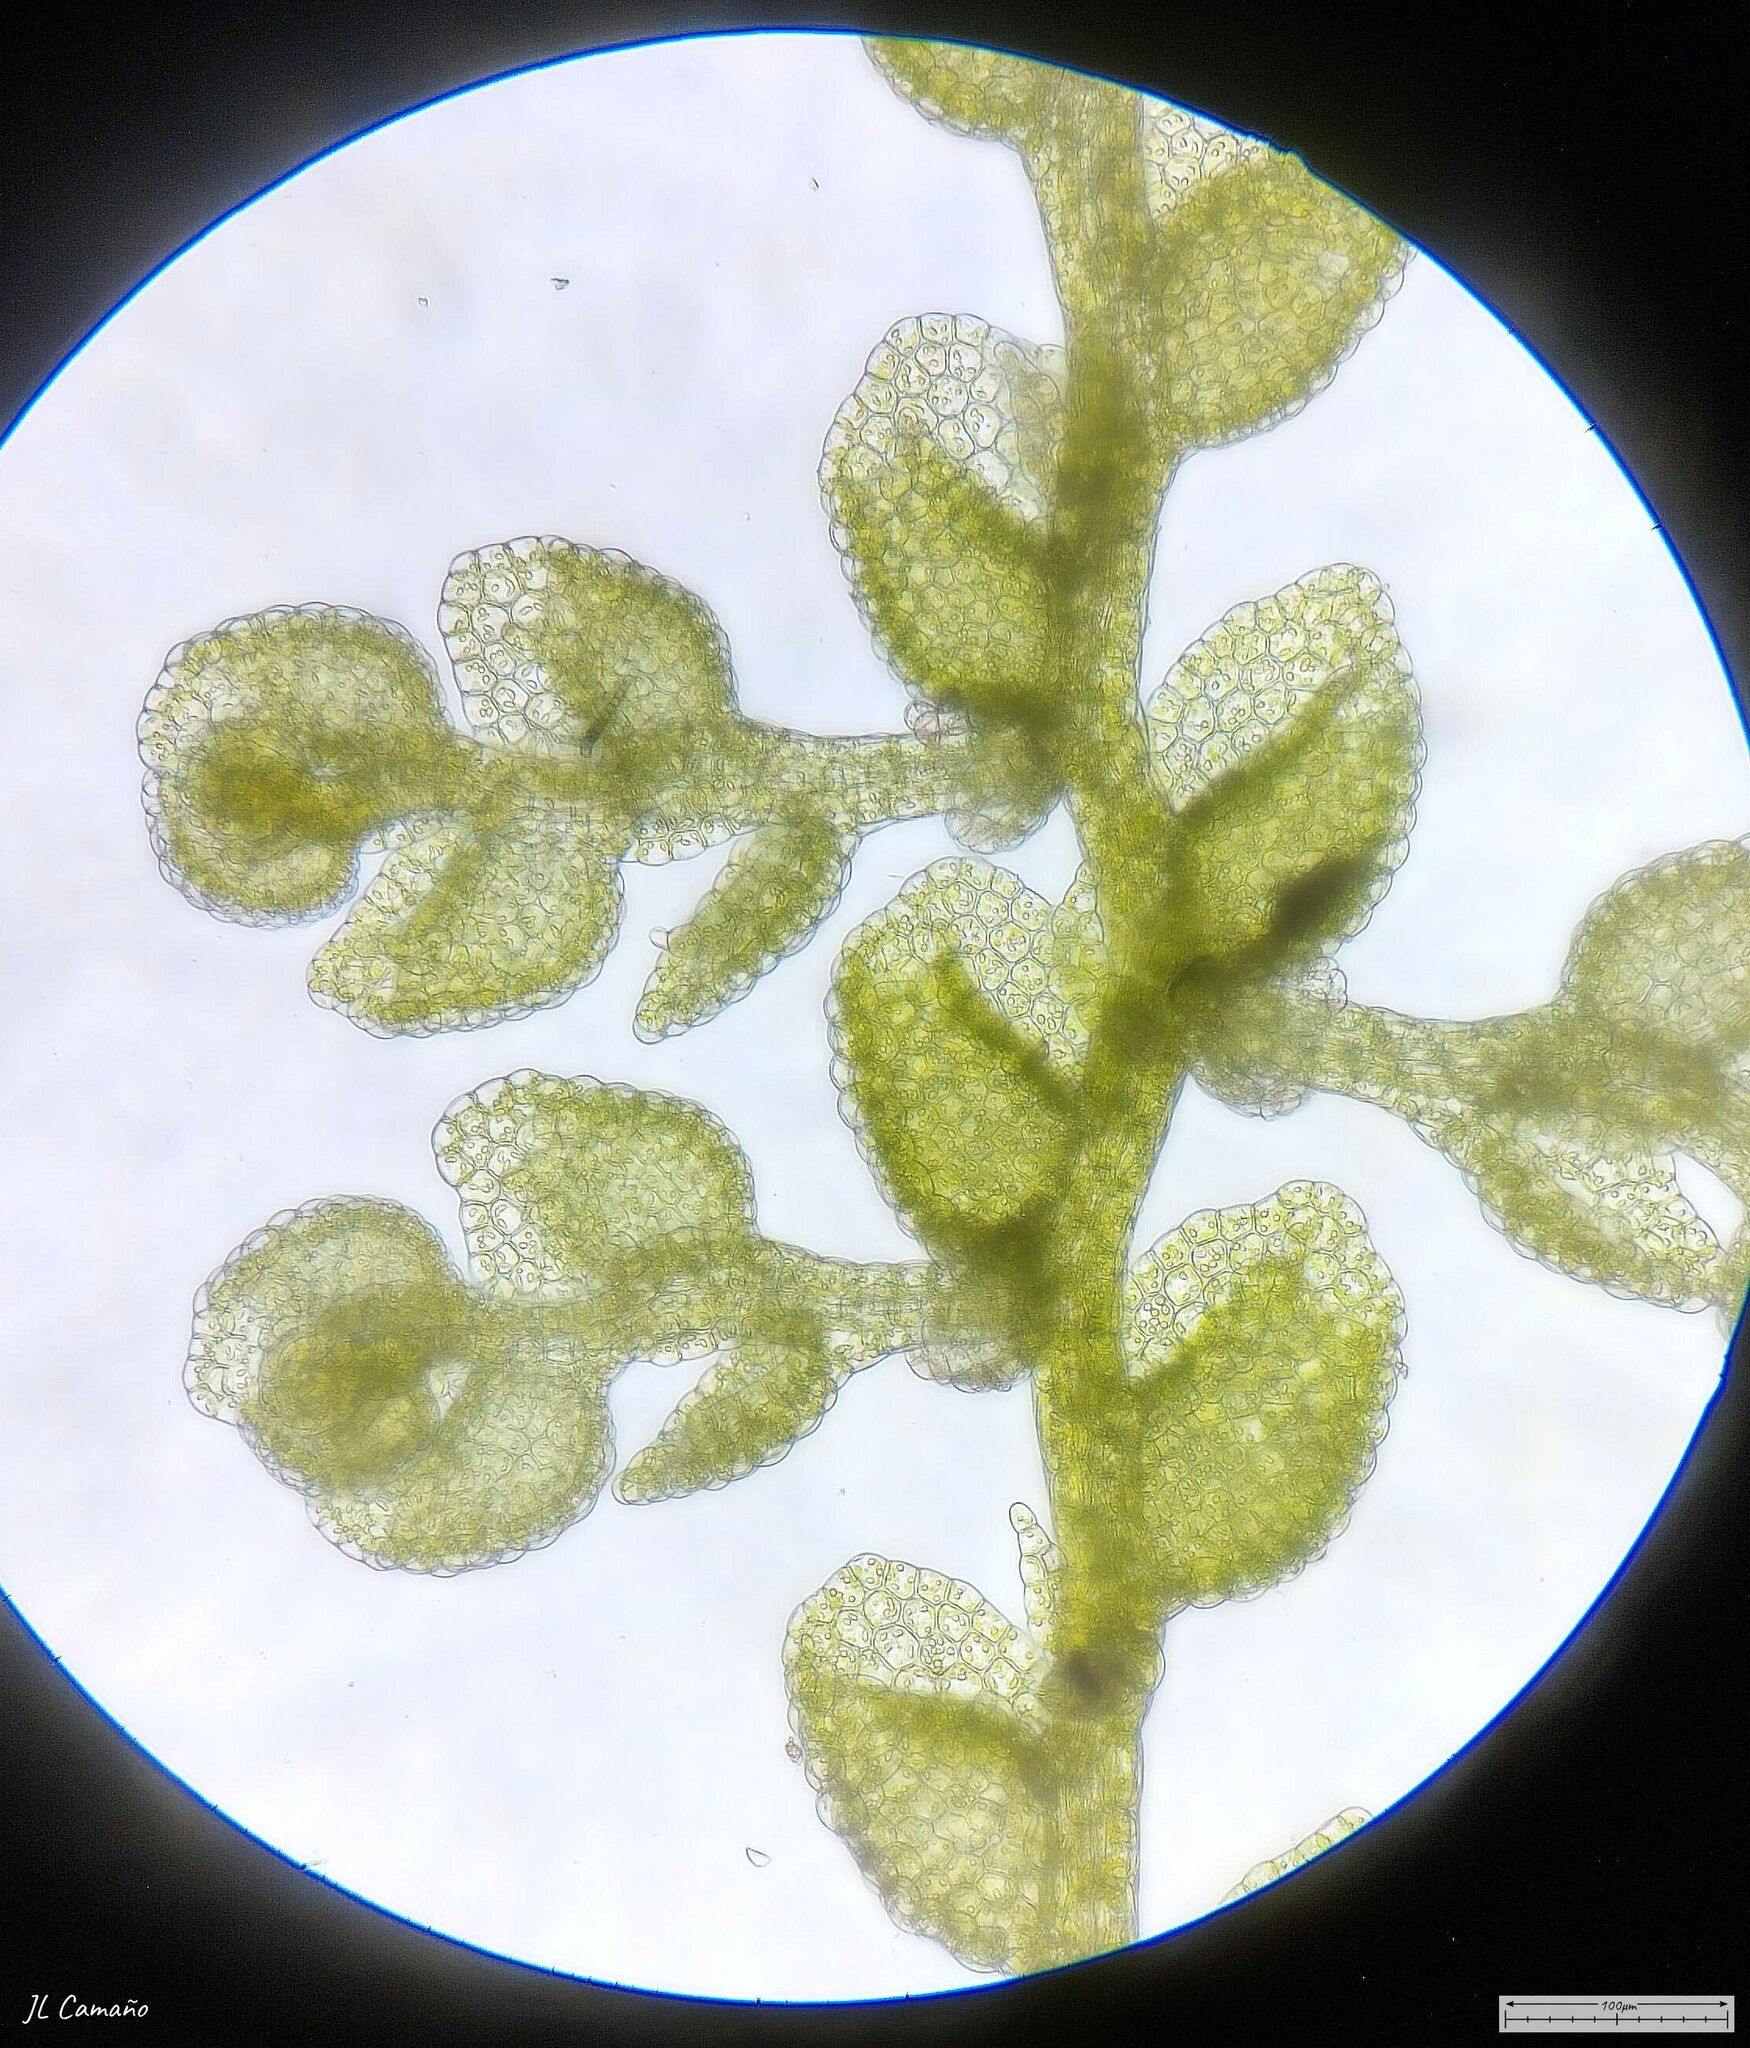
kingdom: Plantae
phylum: Marchantiophyta
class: Jungermanniopsida
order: Porellales
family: Lejeuneaceae
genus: Microlejeunea
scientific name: Microlejeunea ulicina
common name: Fairy beads
